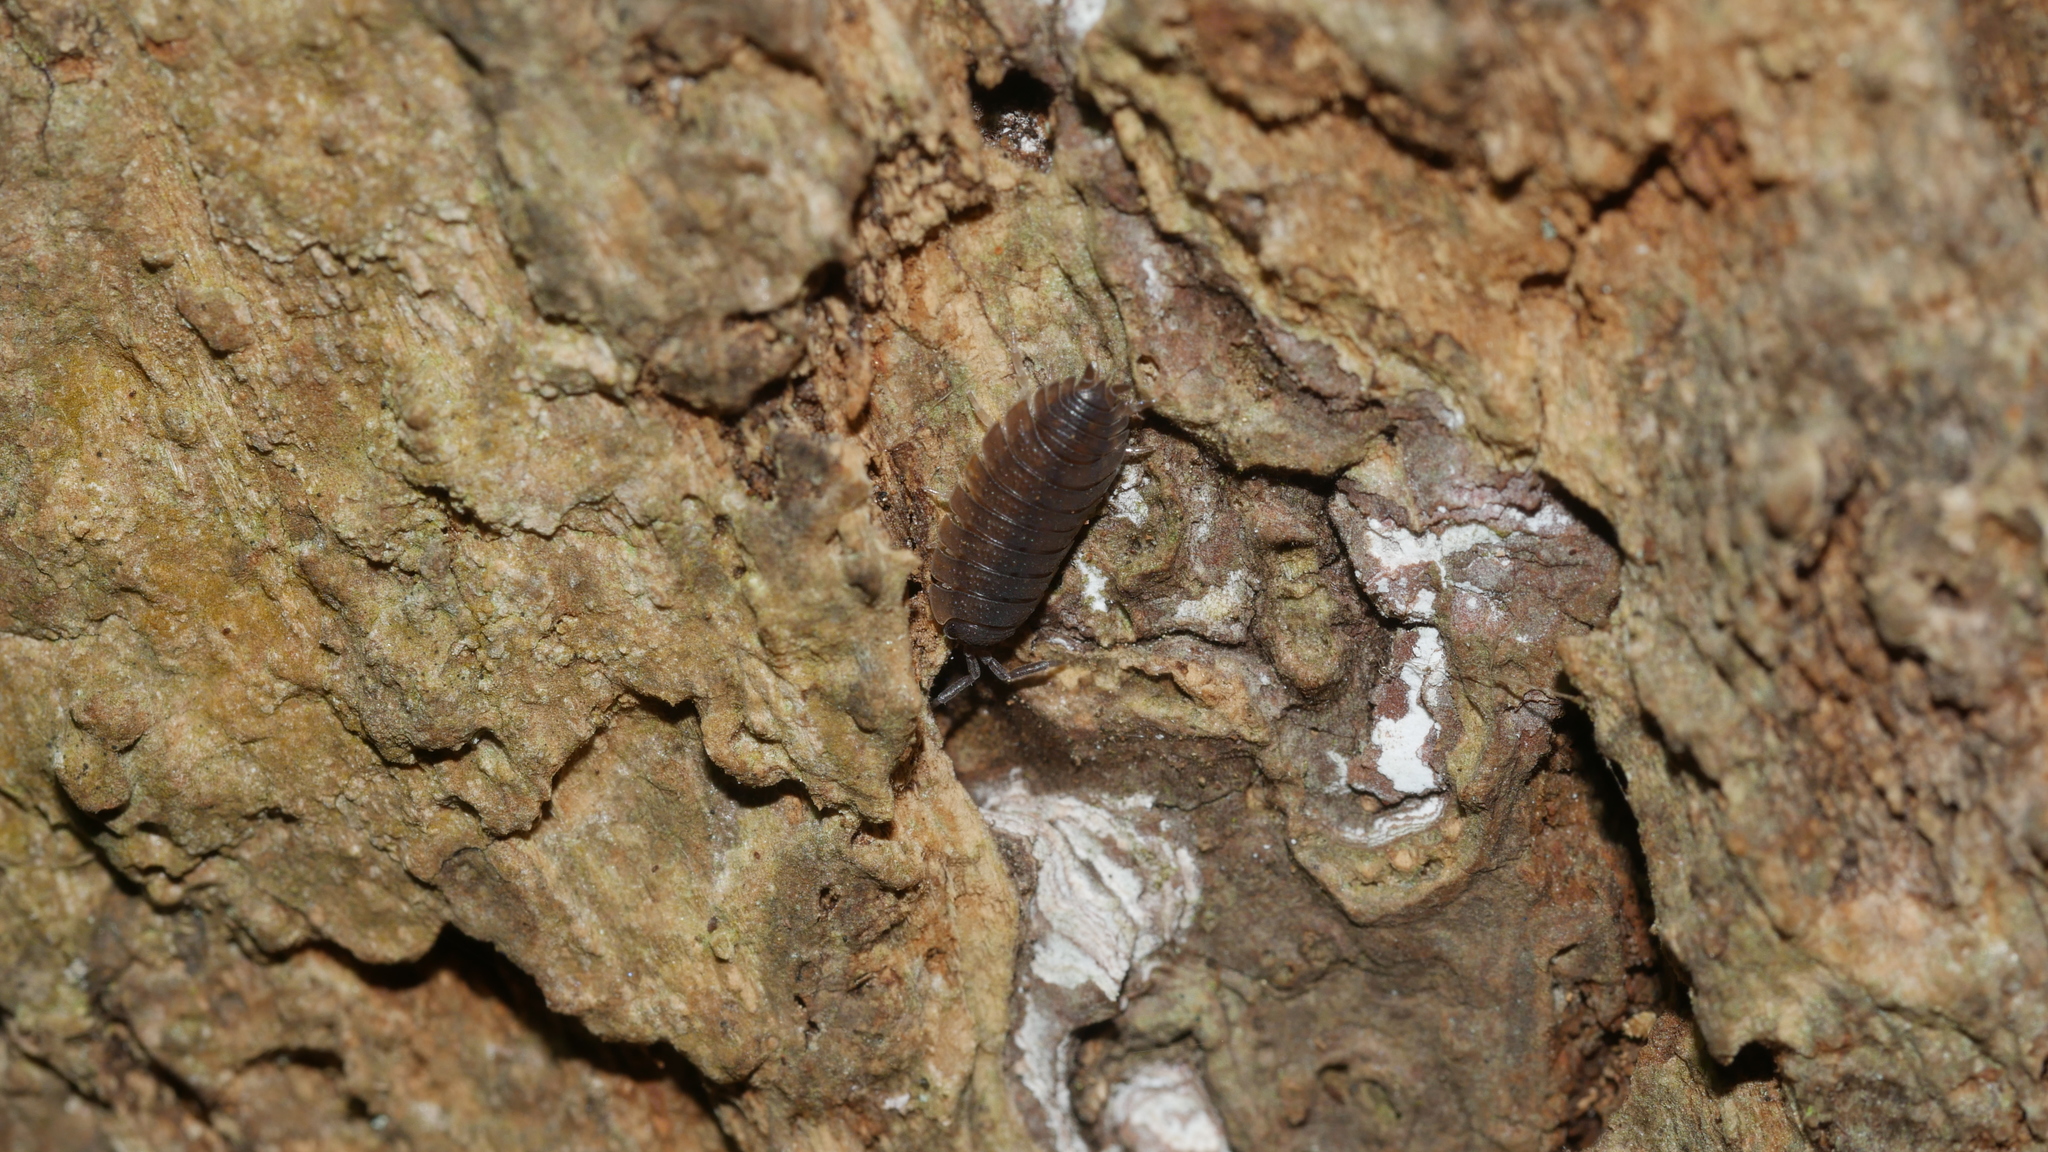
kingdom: Animalia
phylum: Arthropoda
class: Malacostraca
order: Isopoda
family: Porcellionidae
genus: Porcellio
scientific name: Porcellio scaber
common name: Common rough woodlouse
